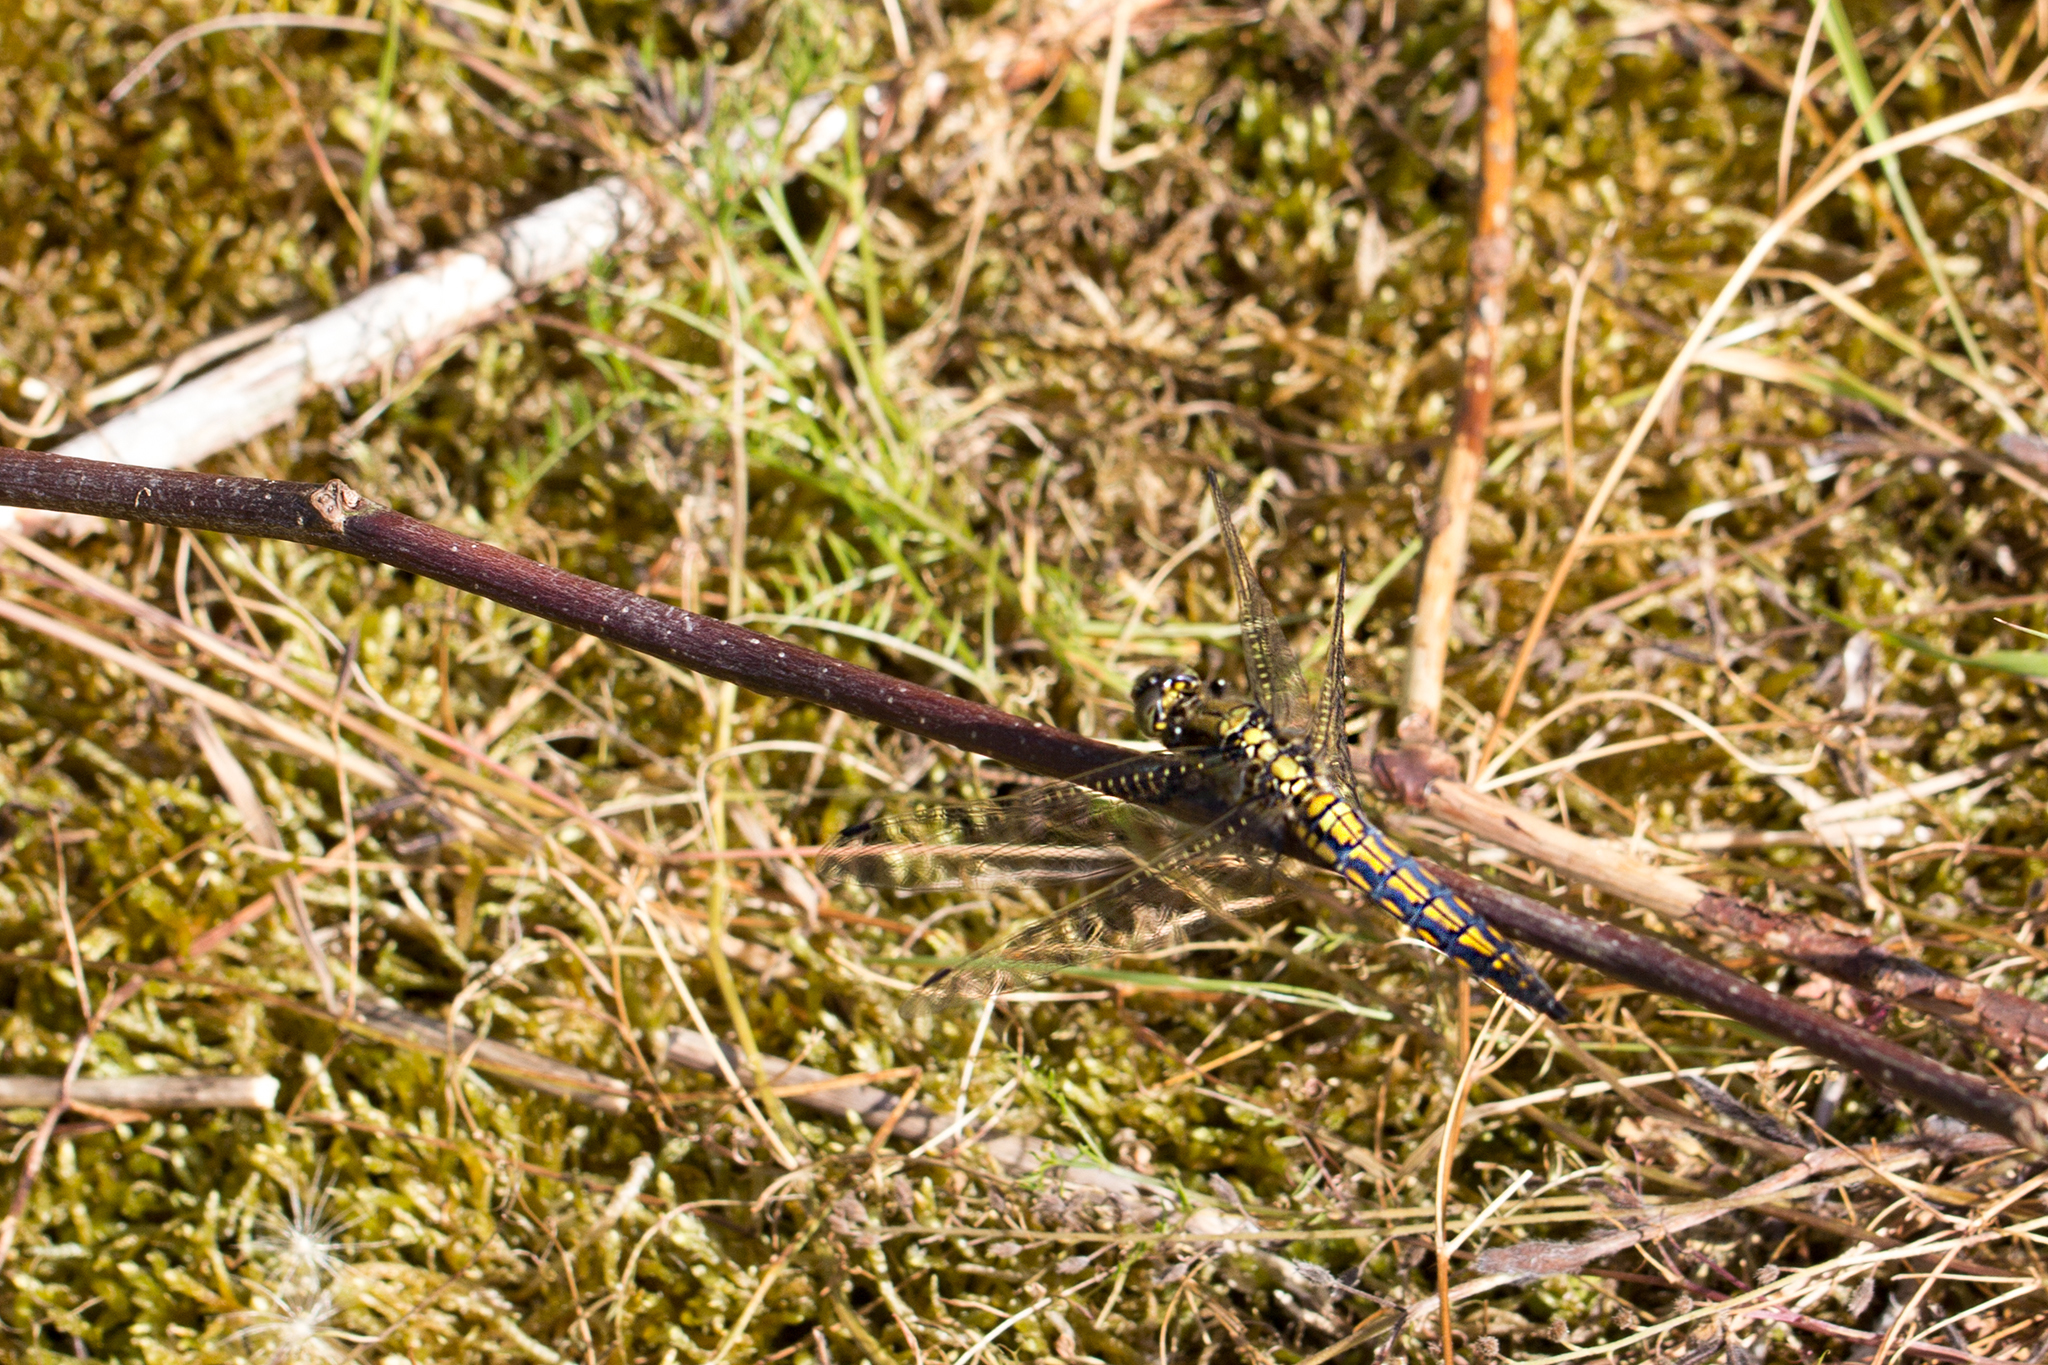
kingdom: Animalia
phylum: Arthropoda
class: Insecta
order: Odonata
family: Libellulidae
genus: Orthetrum
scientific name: Orthetrum cancellatum
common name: Black-tailed skimmer
